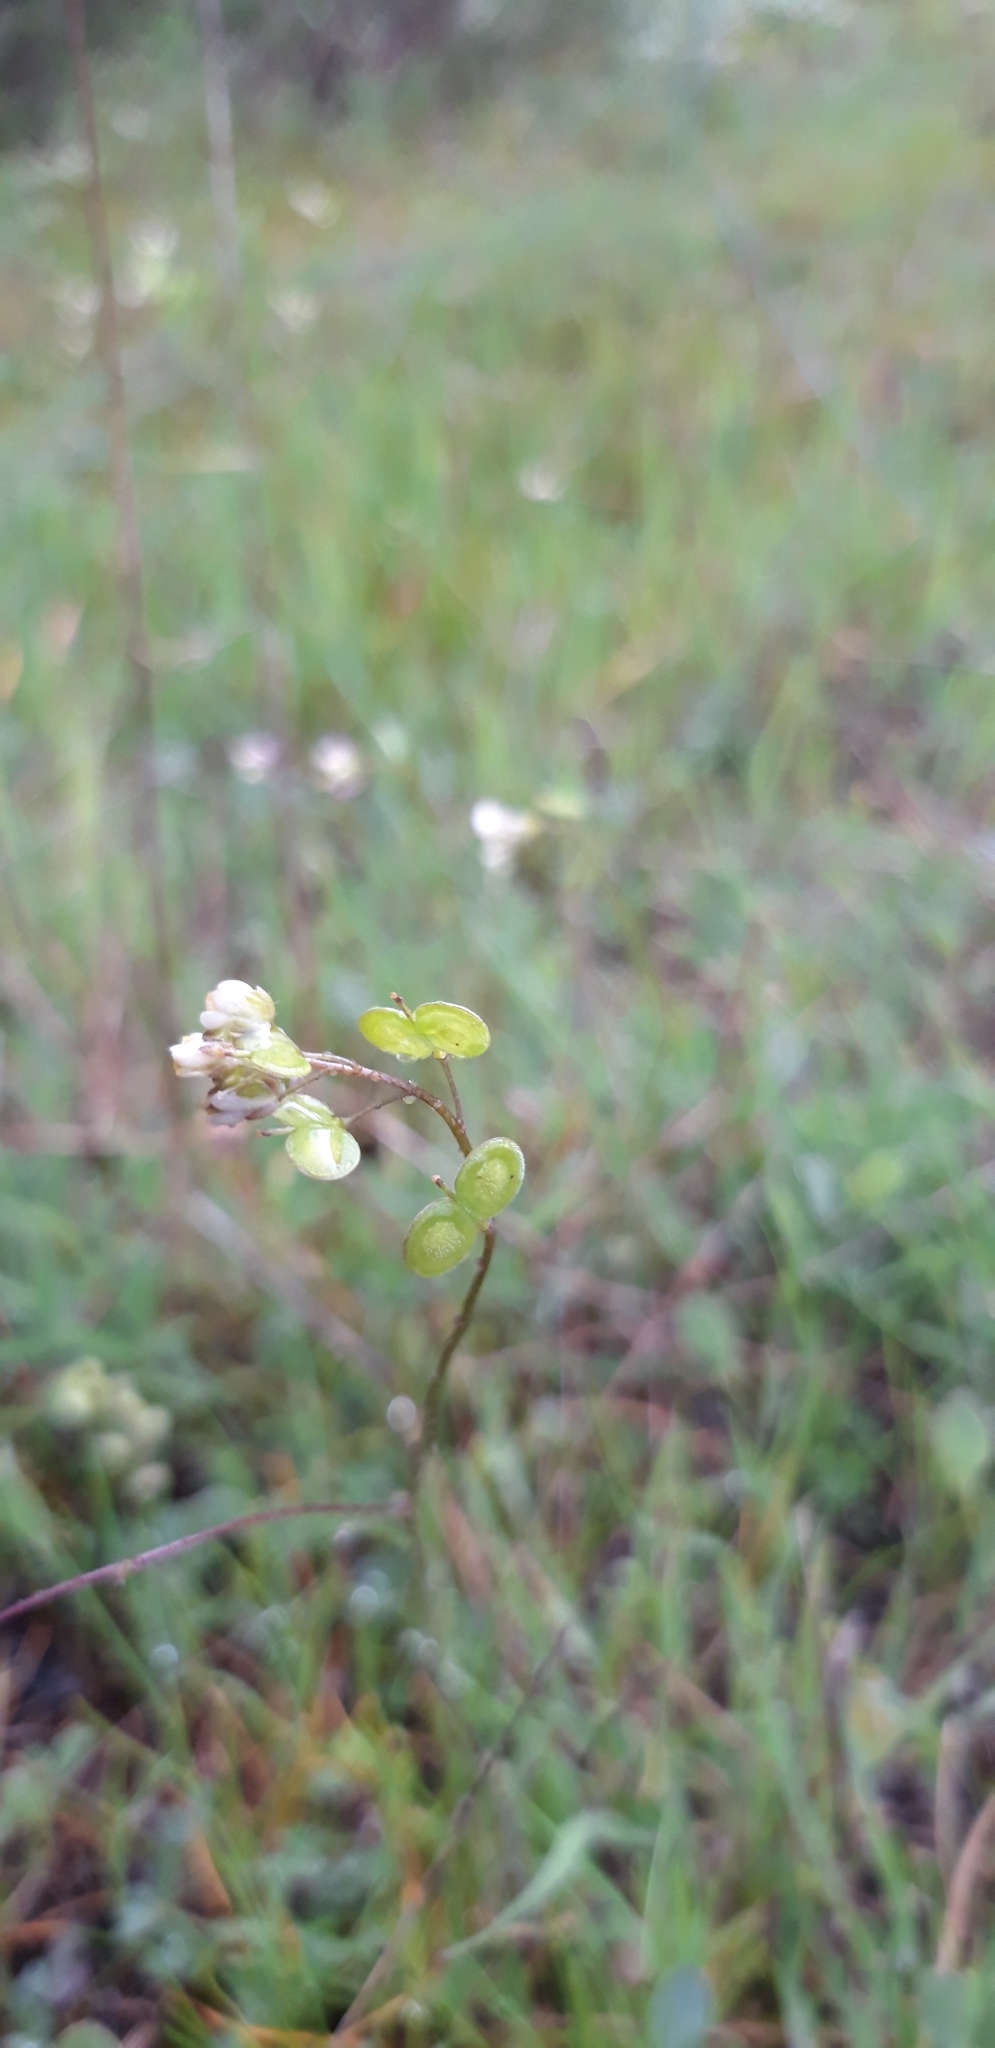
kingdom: Plantae
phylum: Tracheophyta
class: Magnoliopsida
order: Brassicales
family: Brassicaceae
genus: Biscutella
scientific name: Biscutella didyma
